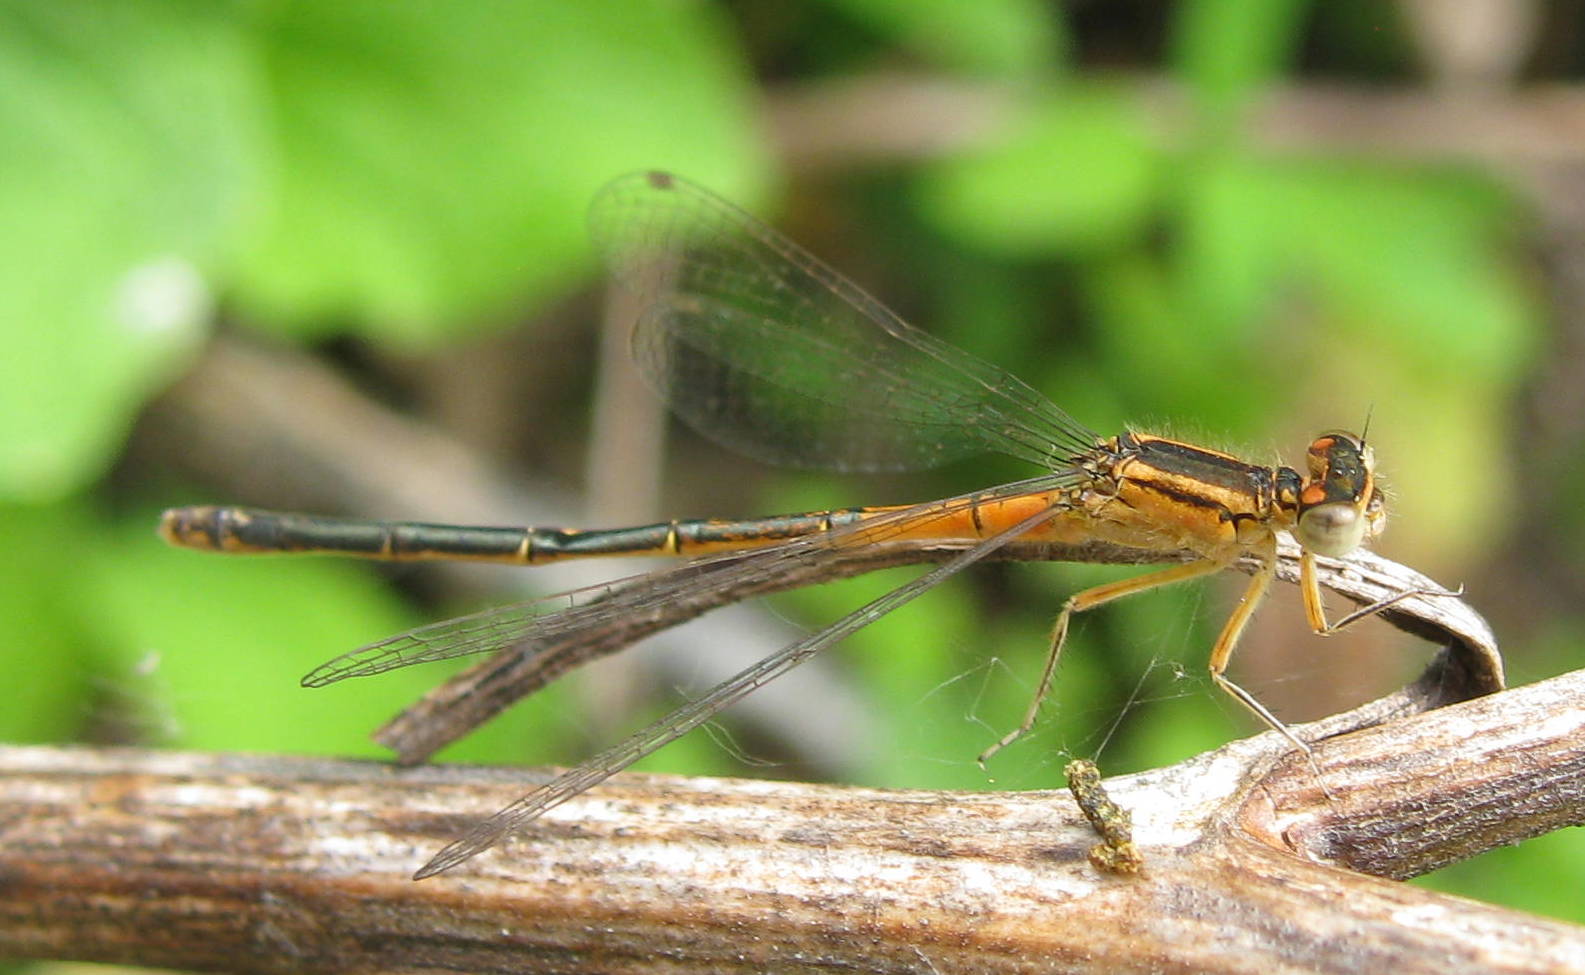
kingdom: Animalia
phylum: Arthropoda
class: Insecta
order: Odonata
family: Coenagrionidae
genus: Ischnura
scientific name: Ischnura verticalis
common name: Eastern forktail
